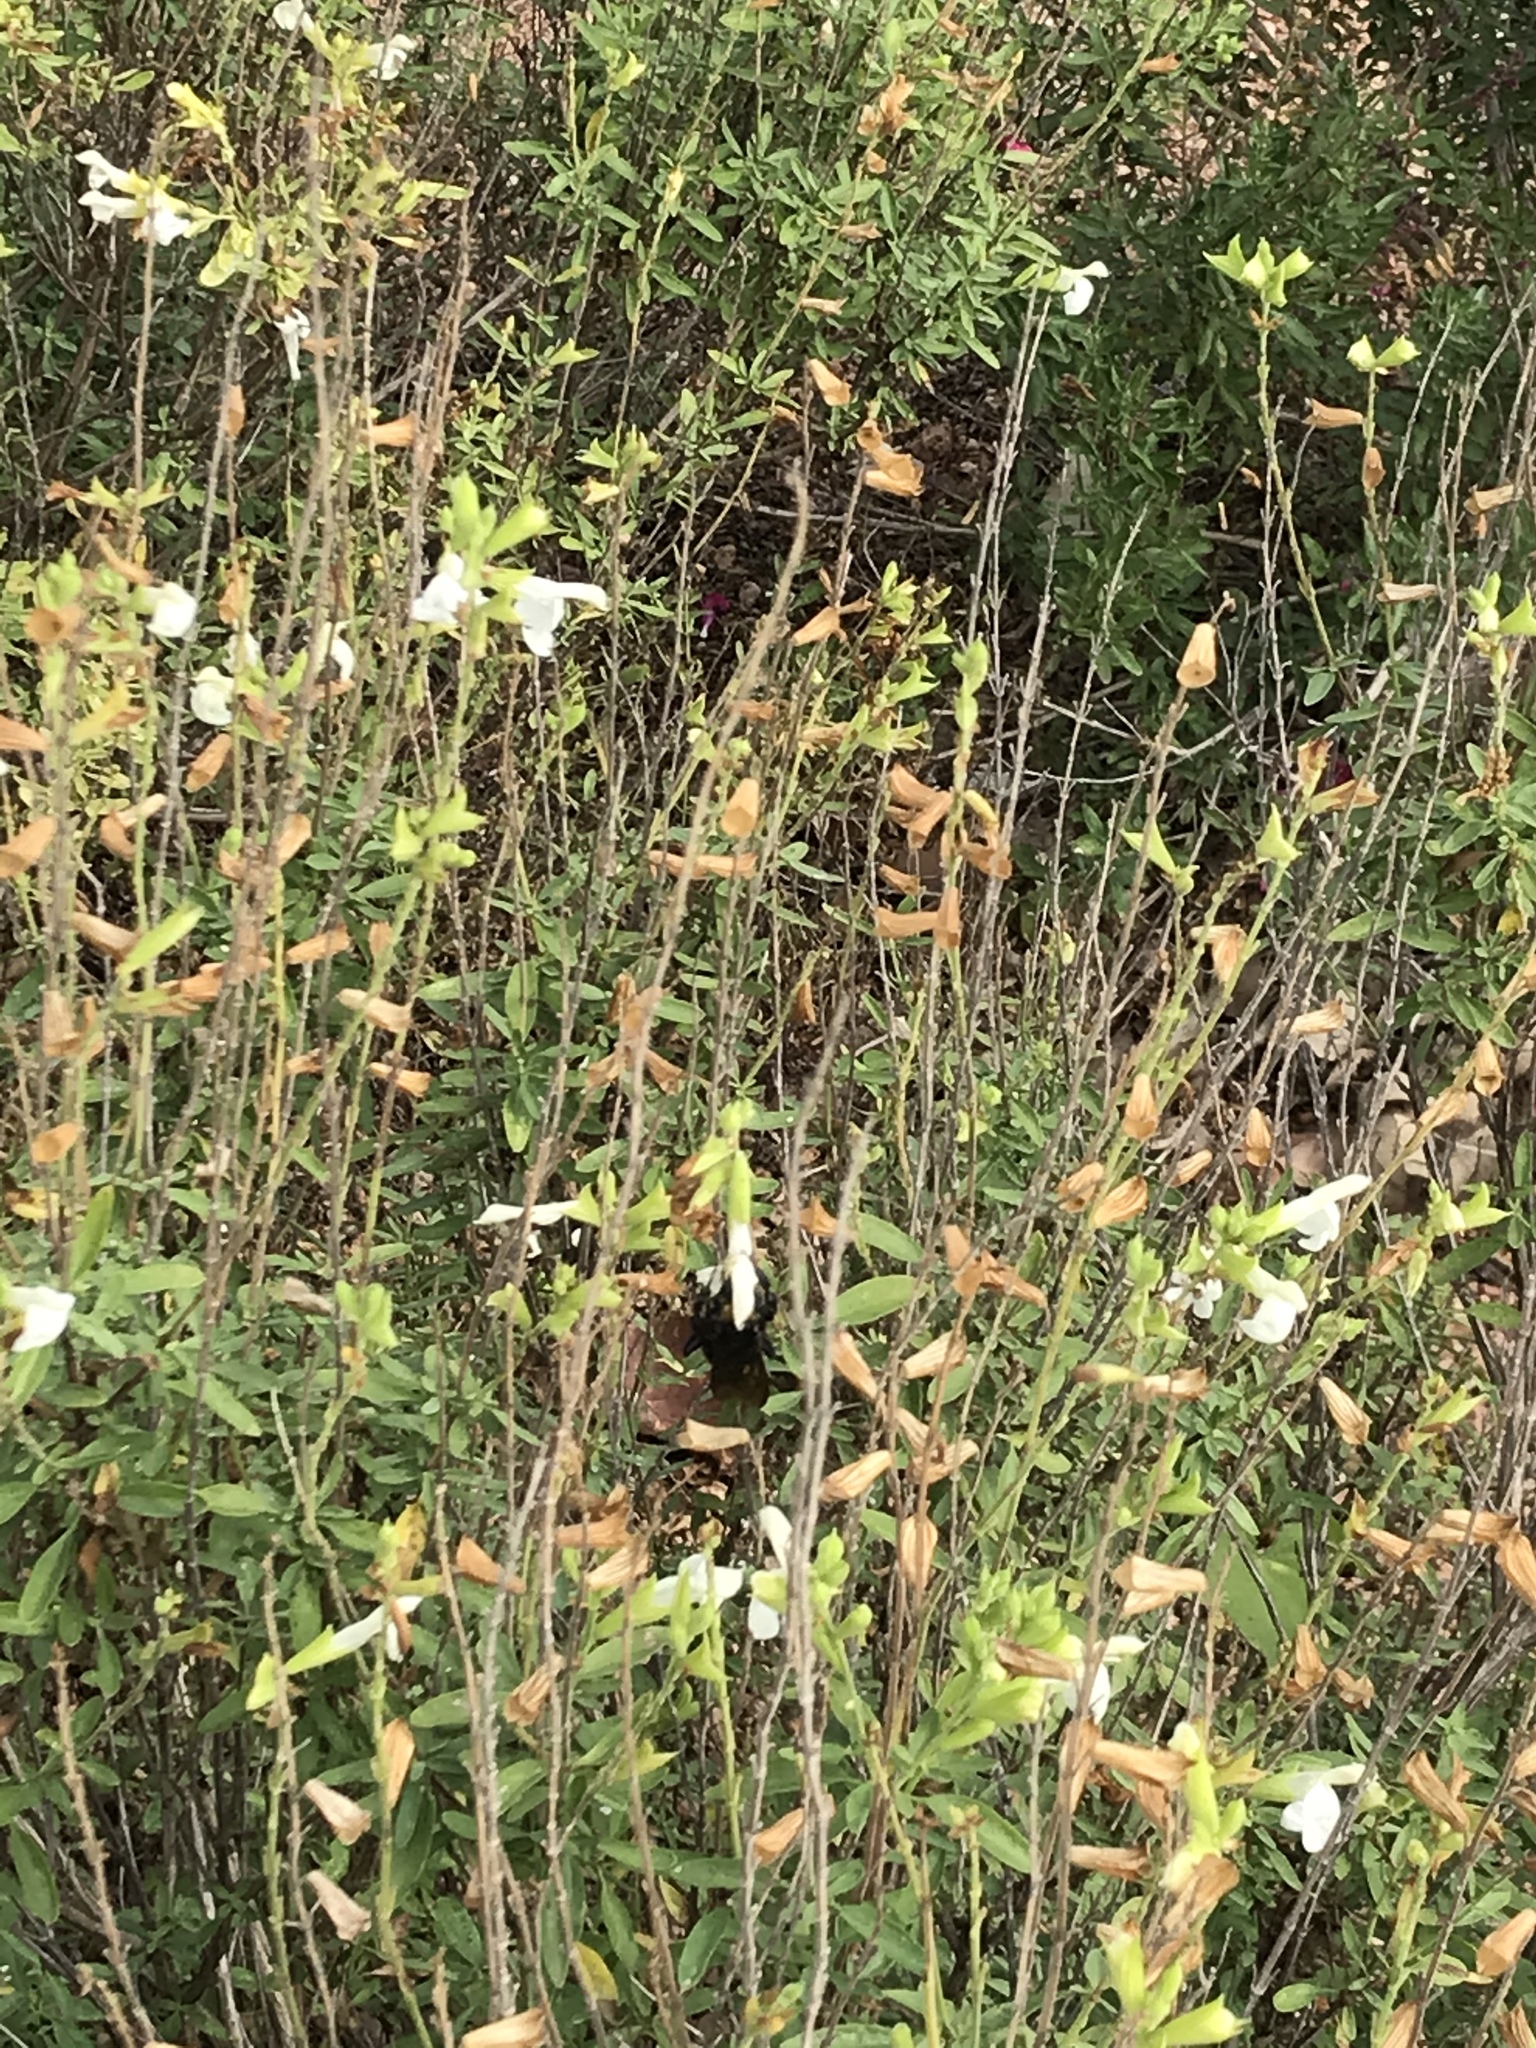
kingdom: Animalia
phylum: Arthropoda
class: Insecta
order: Hymenoptera
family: Apidae
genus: Bombus
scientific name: Bombus pensylvanicus
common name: Bumble bee
